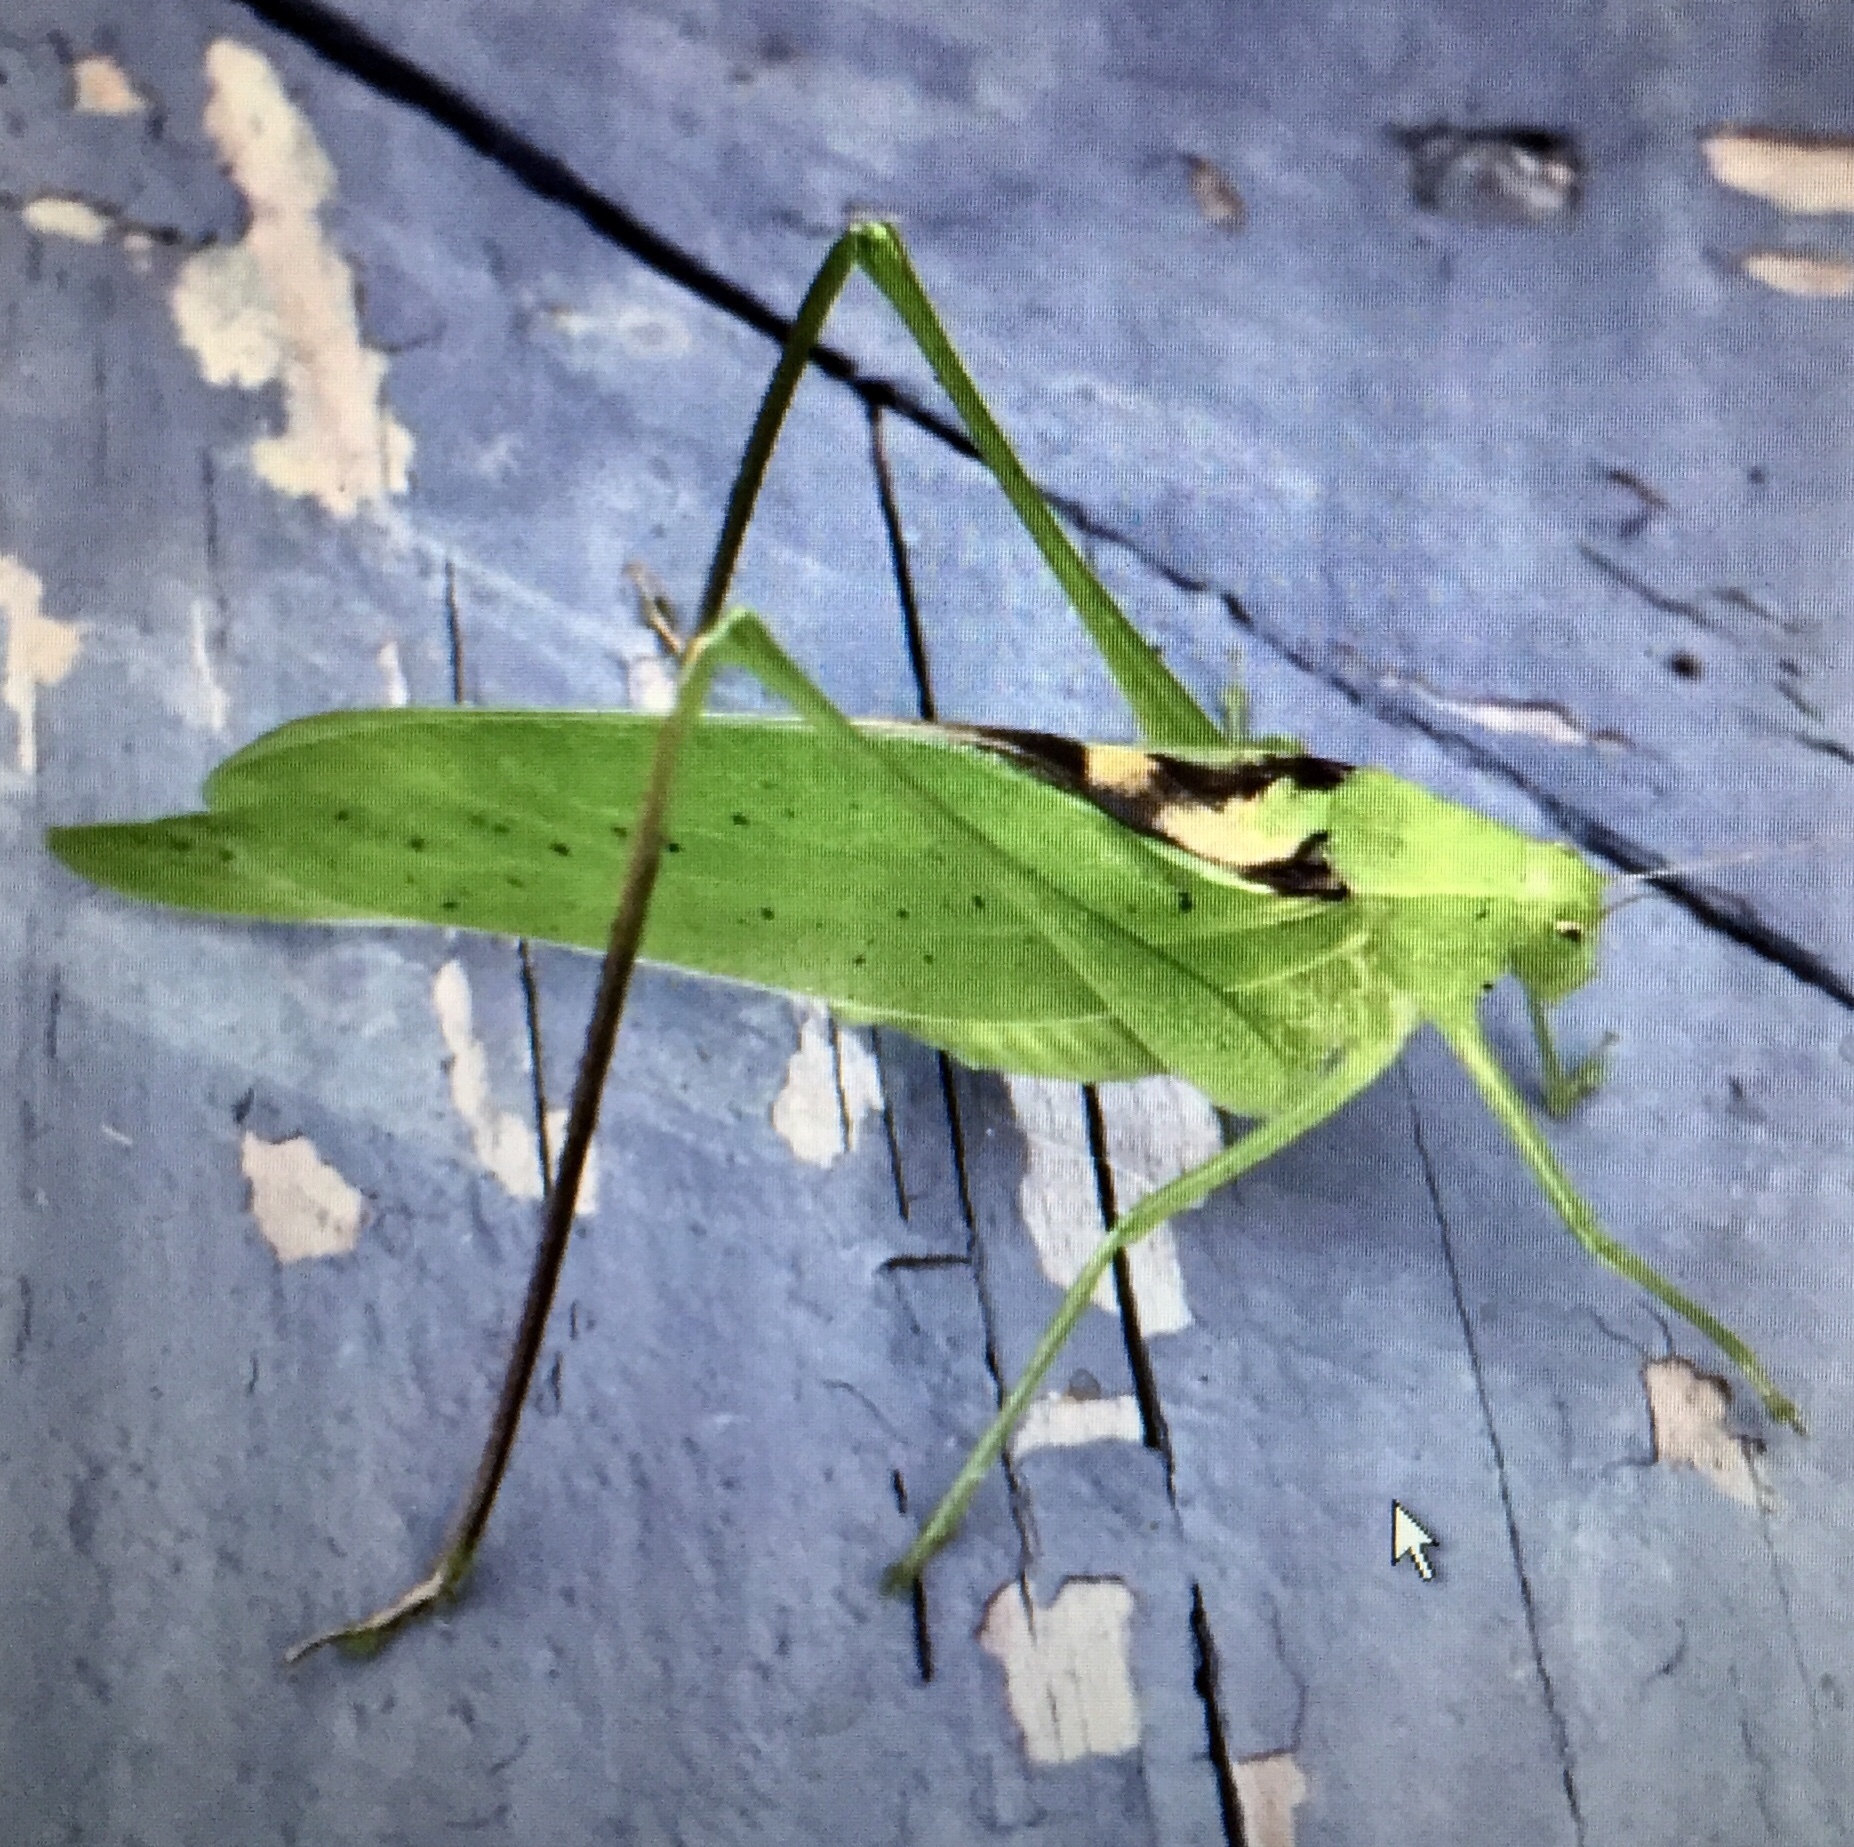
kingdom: Animalia
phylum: Arthropoda
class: Insecta
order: Orthoptera
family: Tettigoniidae
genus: Amblycorypha
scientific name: Amblycorypha oblongifolia
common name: Oblong-winged katydid
